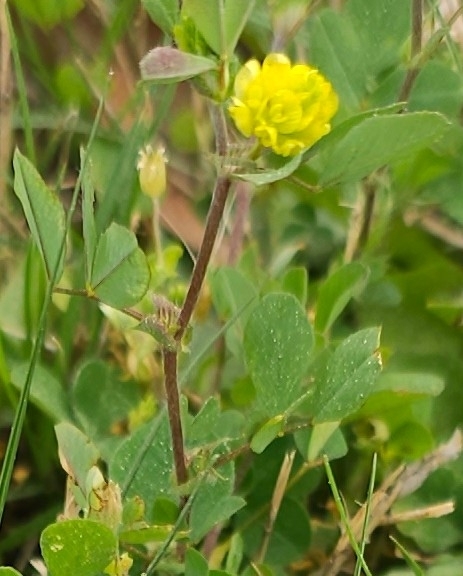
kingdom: Plantae
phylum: Tracheophyta
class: Magnoliopsida
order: Fabales
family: Fabaceae
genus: Trifolium
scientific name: Trifolium campestre
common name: Field clover
